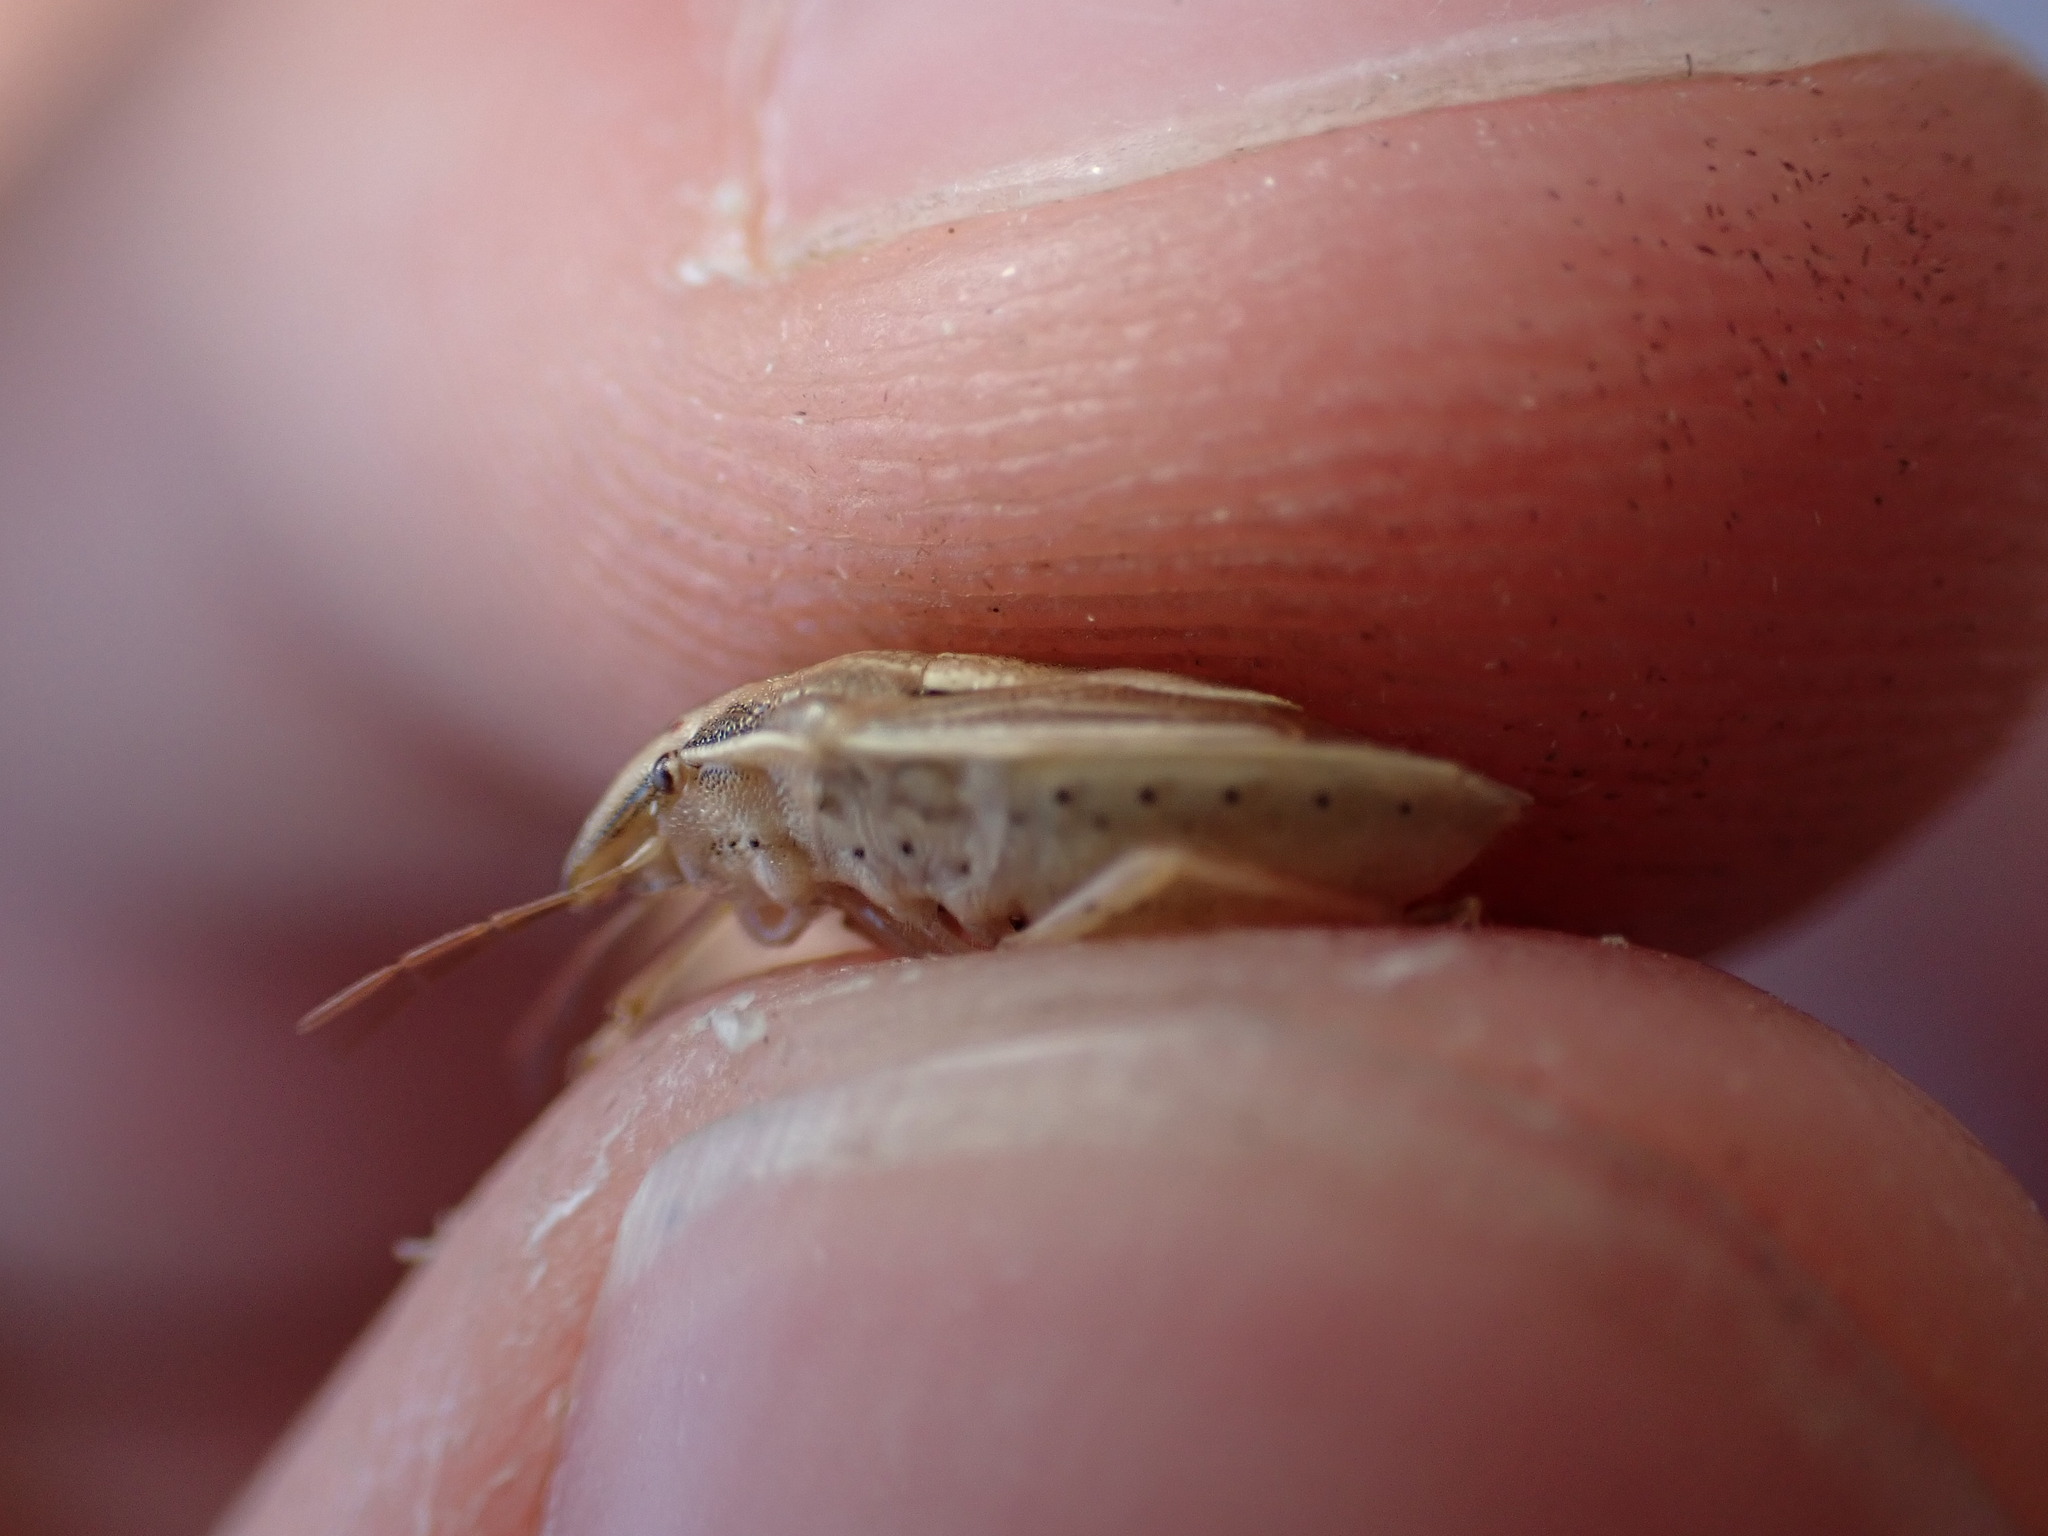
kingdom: Animalia
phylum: Arthropoda
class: Insecta
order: Hemiptera
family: Pentatomidae
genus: Aelia
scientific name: Aelia acuminata
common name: Bishop's mitre
